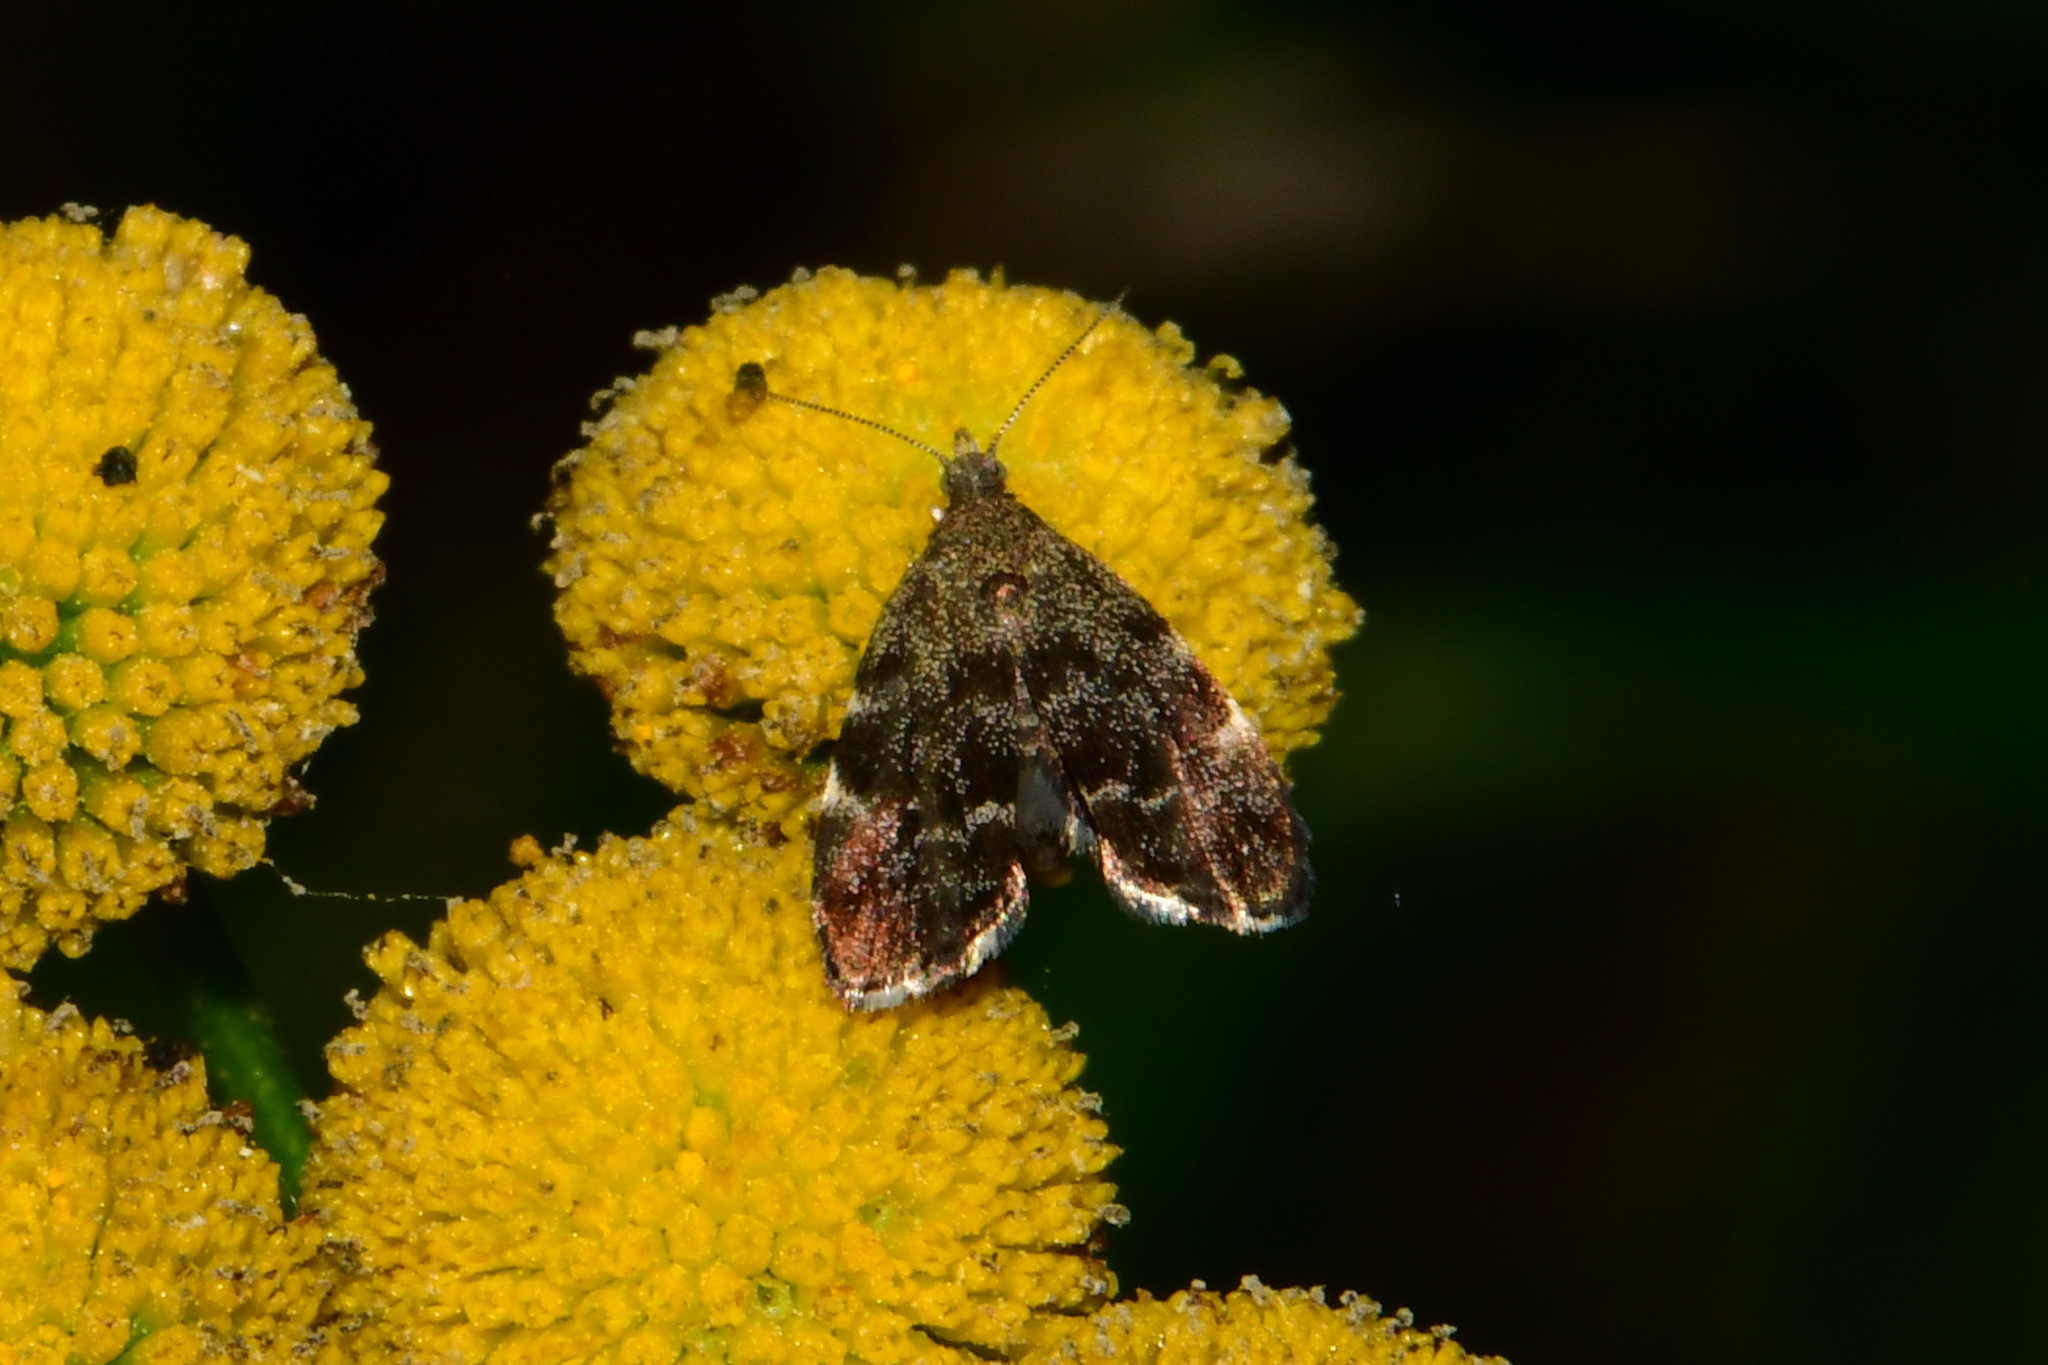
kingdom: Animalia
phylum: Arthropoda
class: Insecta
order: Lepidoptera
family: Choreutidae
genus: Anthophila
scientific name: Anthophila fabriciana
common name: Nettle-tap
